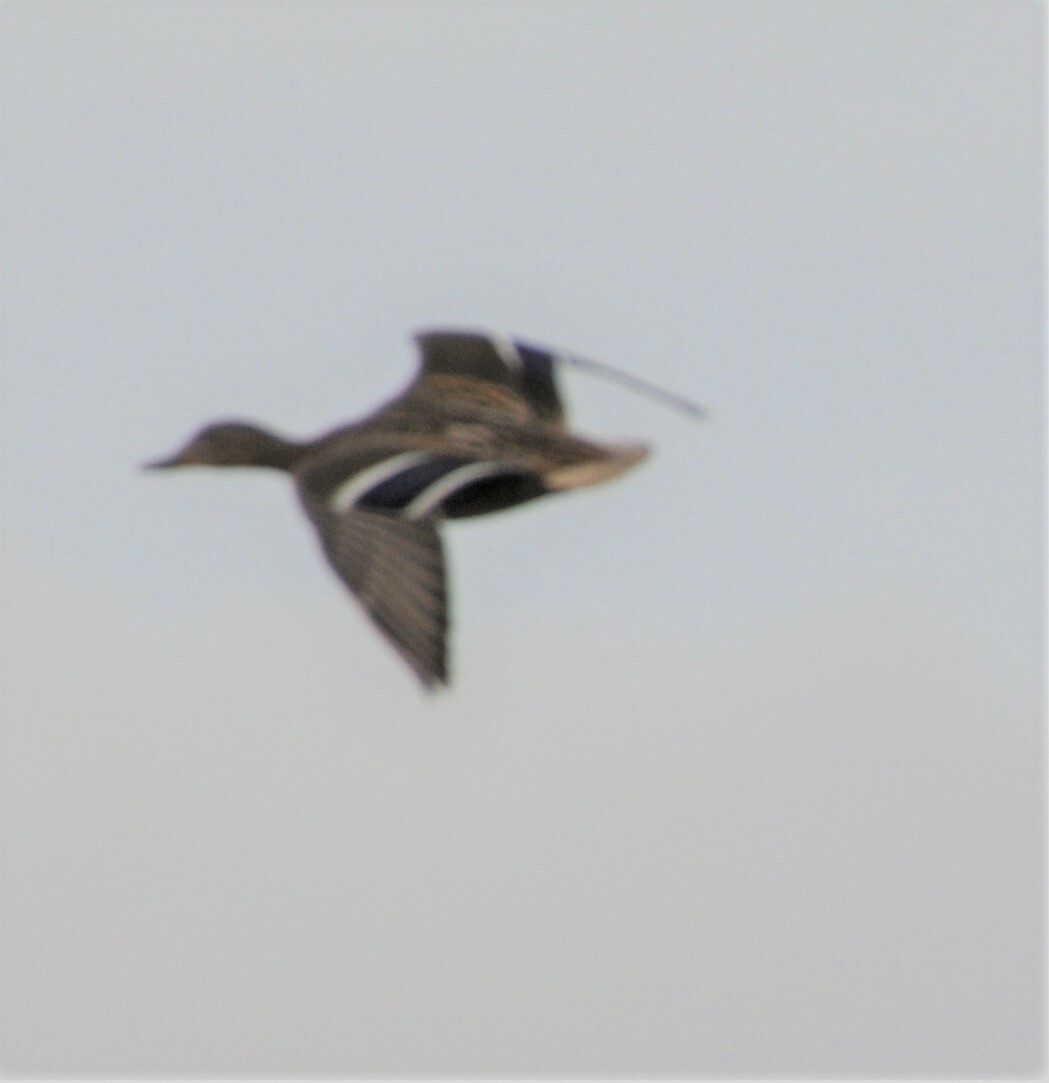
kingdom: Animalia
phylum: Chordata
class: Aves
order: Anseriformes
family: Anatidae
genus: Anas
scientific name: Anas platyrhynchos
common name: Mallard
